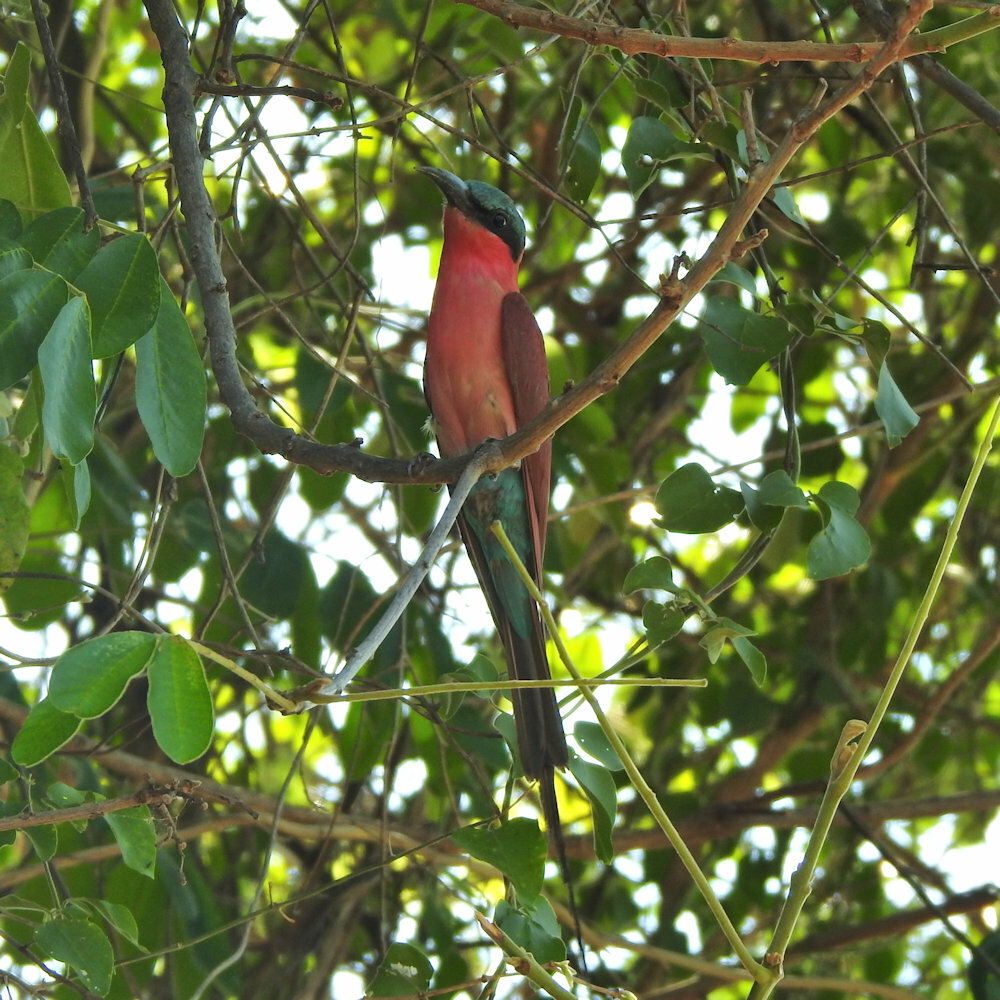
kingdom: Animalia
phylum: Chordata
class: Aves
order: Coraciiformes
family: Meropidae
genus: Merops
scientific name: Merops nubicoides
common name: Southern carmine bee-eater
